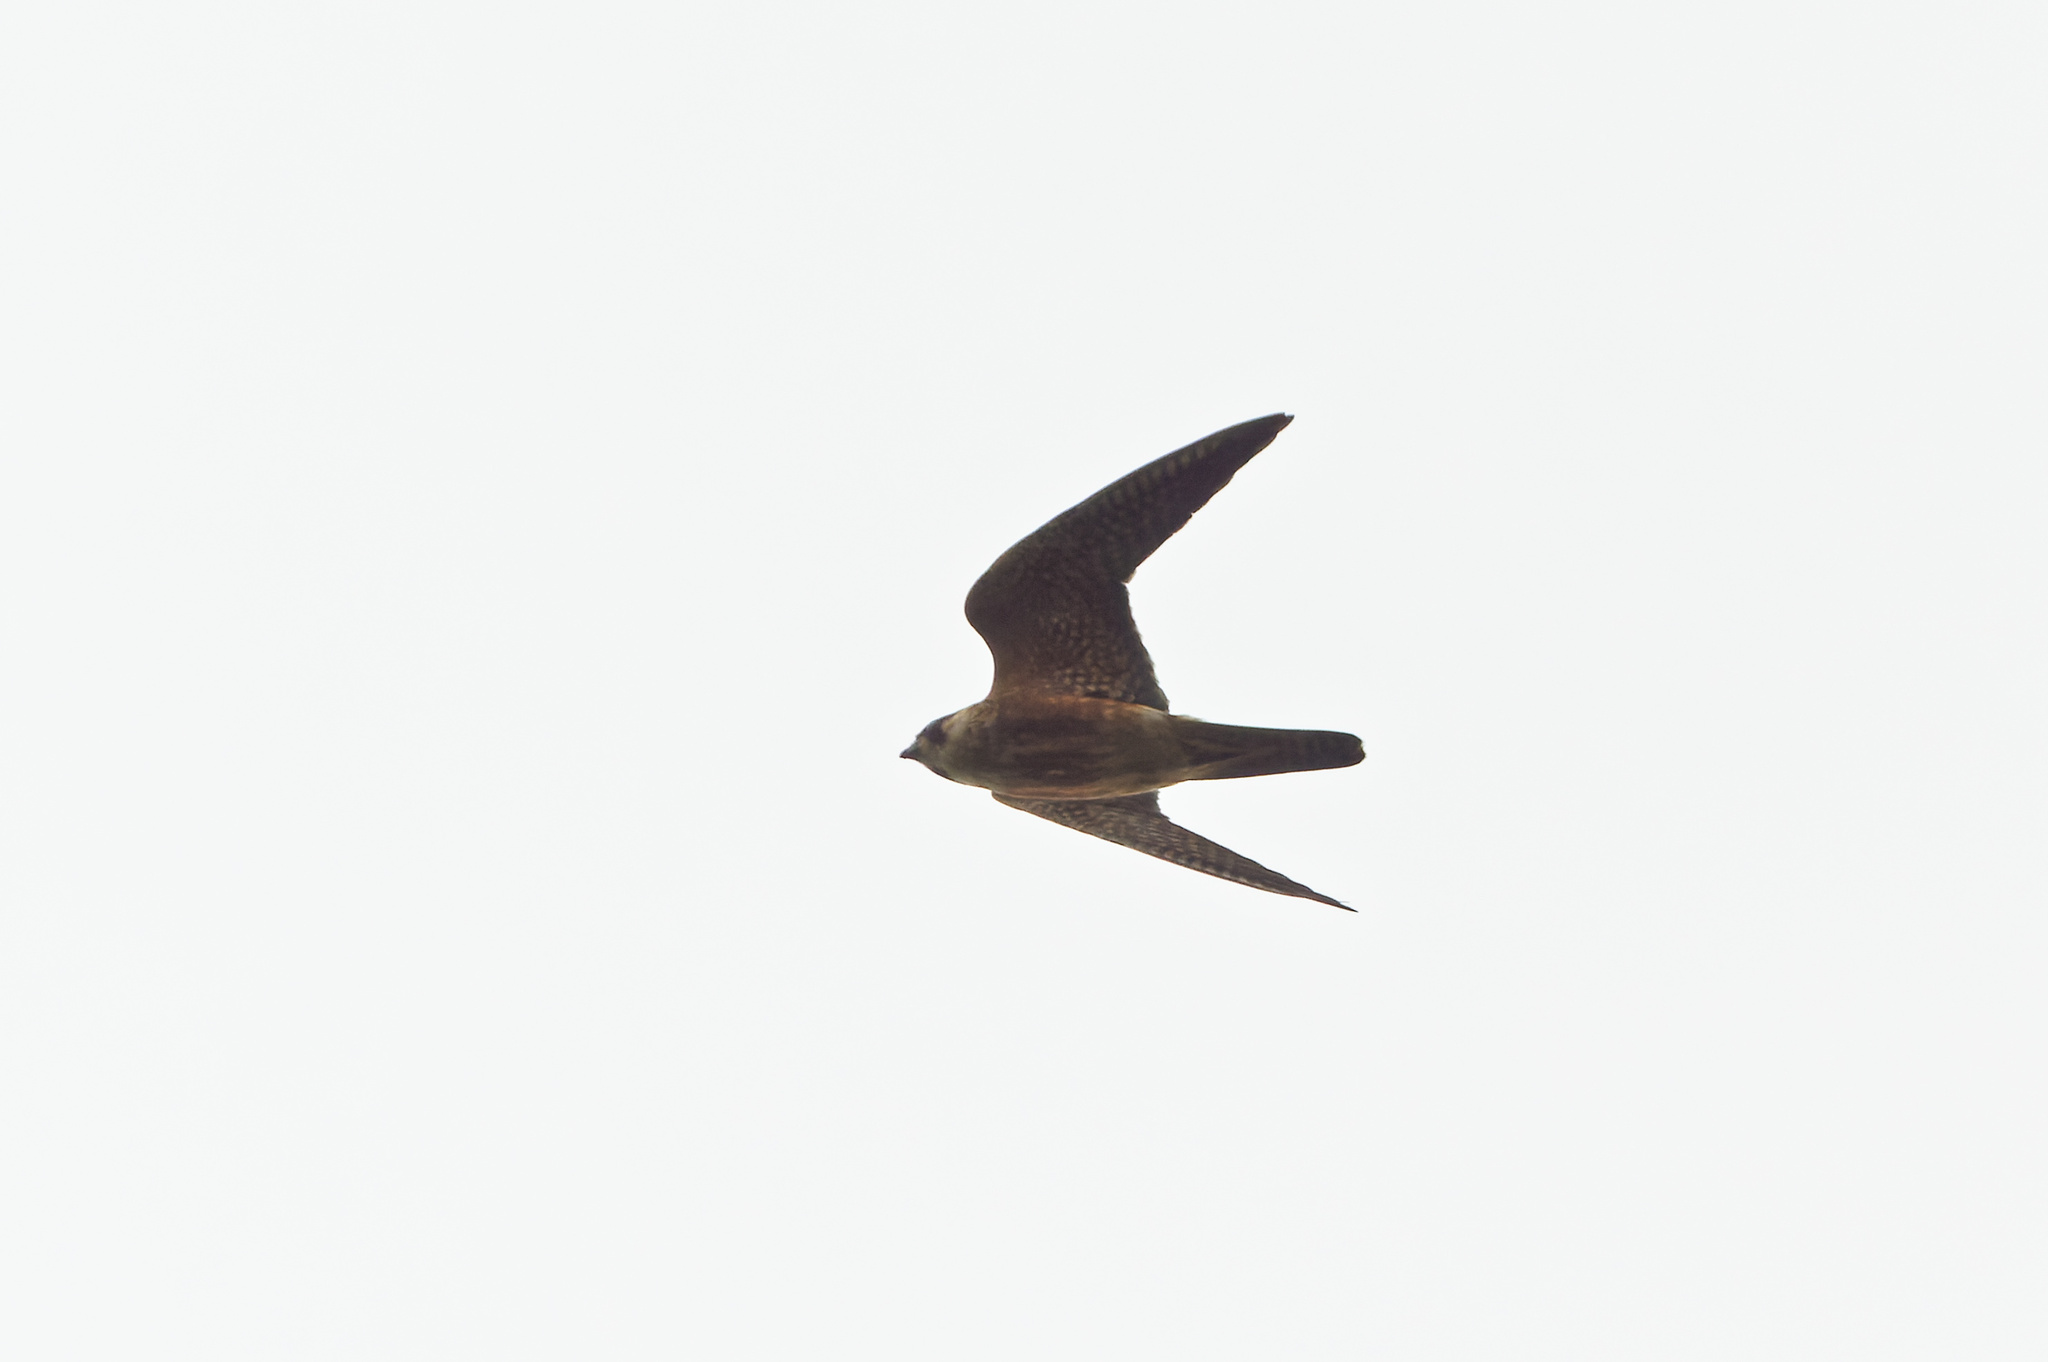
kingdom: Animalia
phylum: Chordata
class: Aves
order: Falconiformes
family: Falconidae
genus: Falco
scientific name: Falco longipennis
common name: Australian hobby
